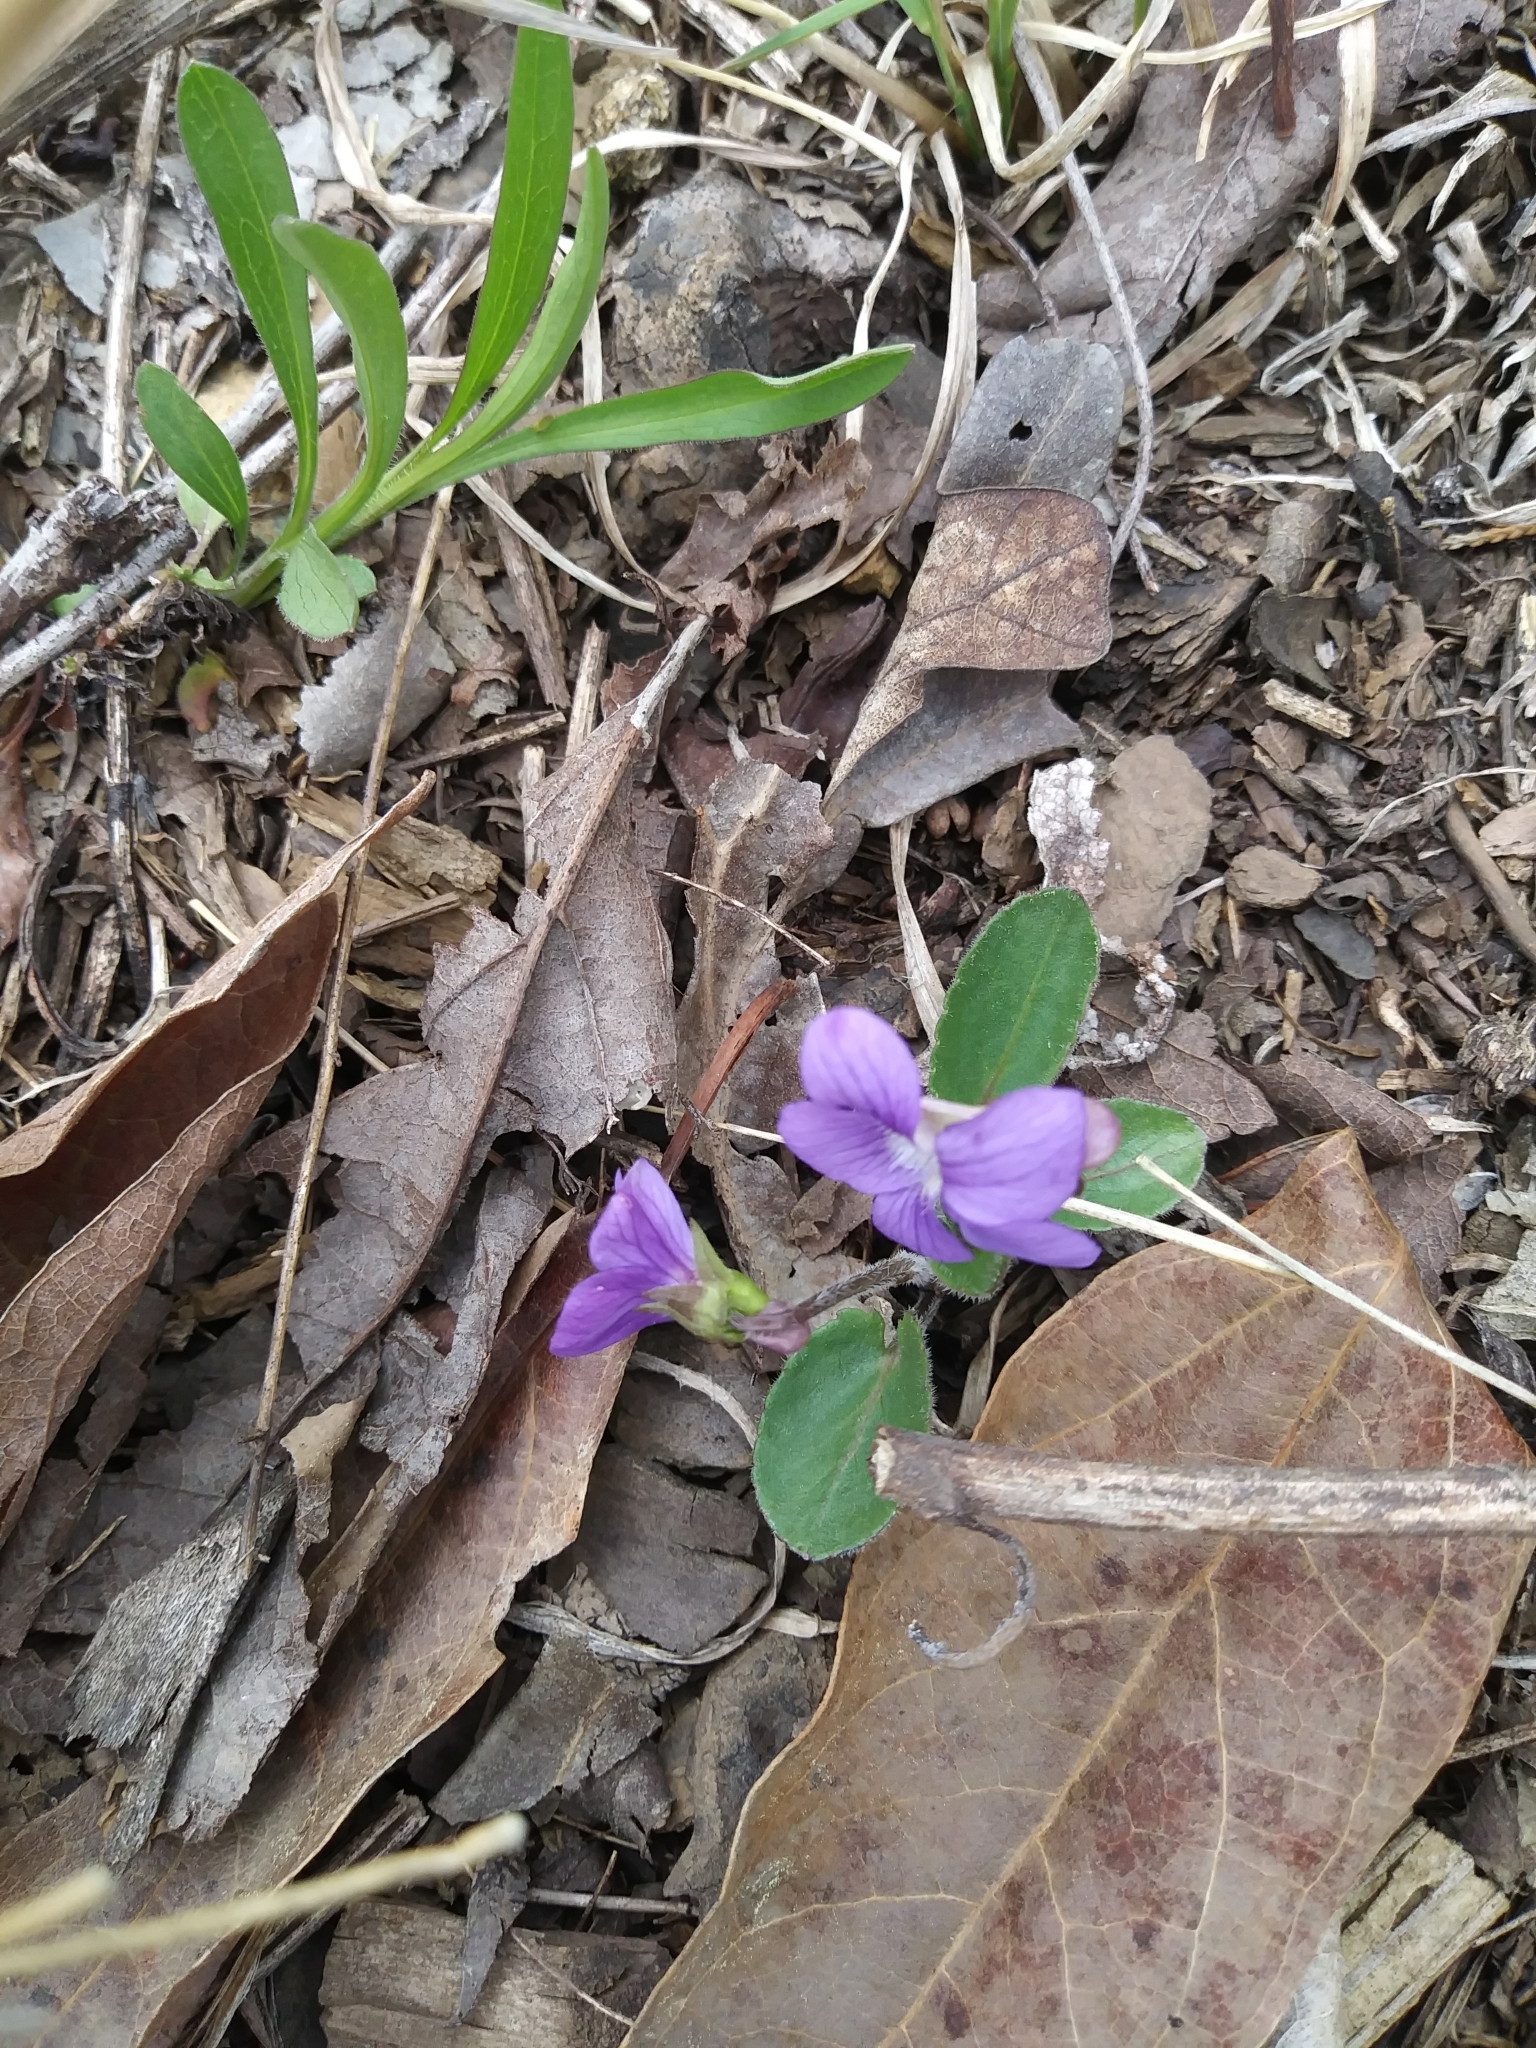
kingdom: Plantae
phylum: Tracheophyta
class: Magnoliopsida
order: Malpighiales
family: Violaceae
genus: Viola
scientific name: Viola sagittata
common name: Arrowhead violet
